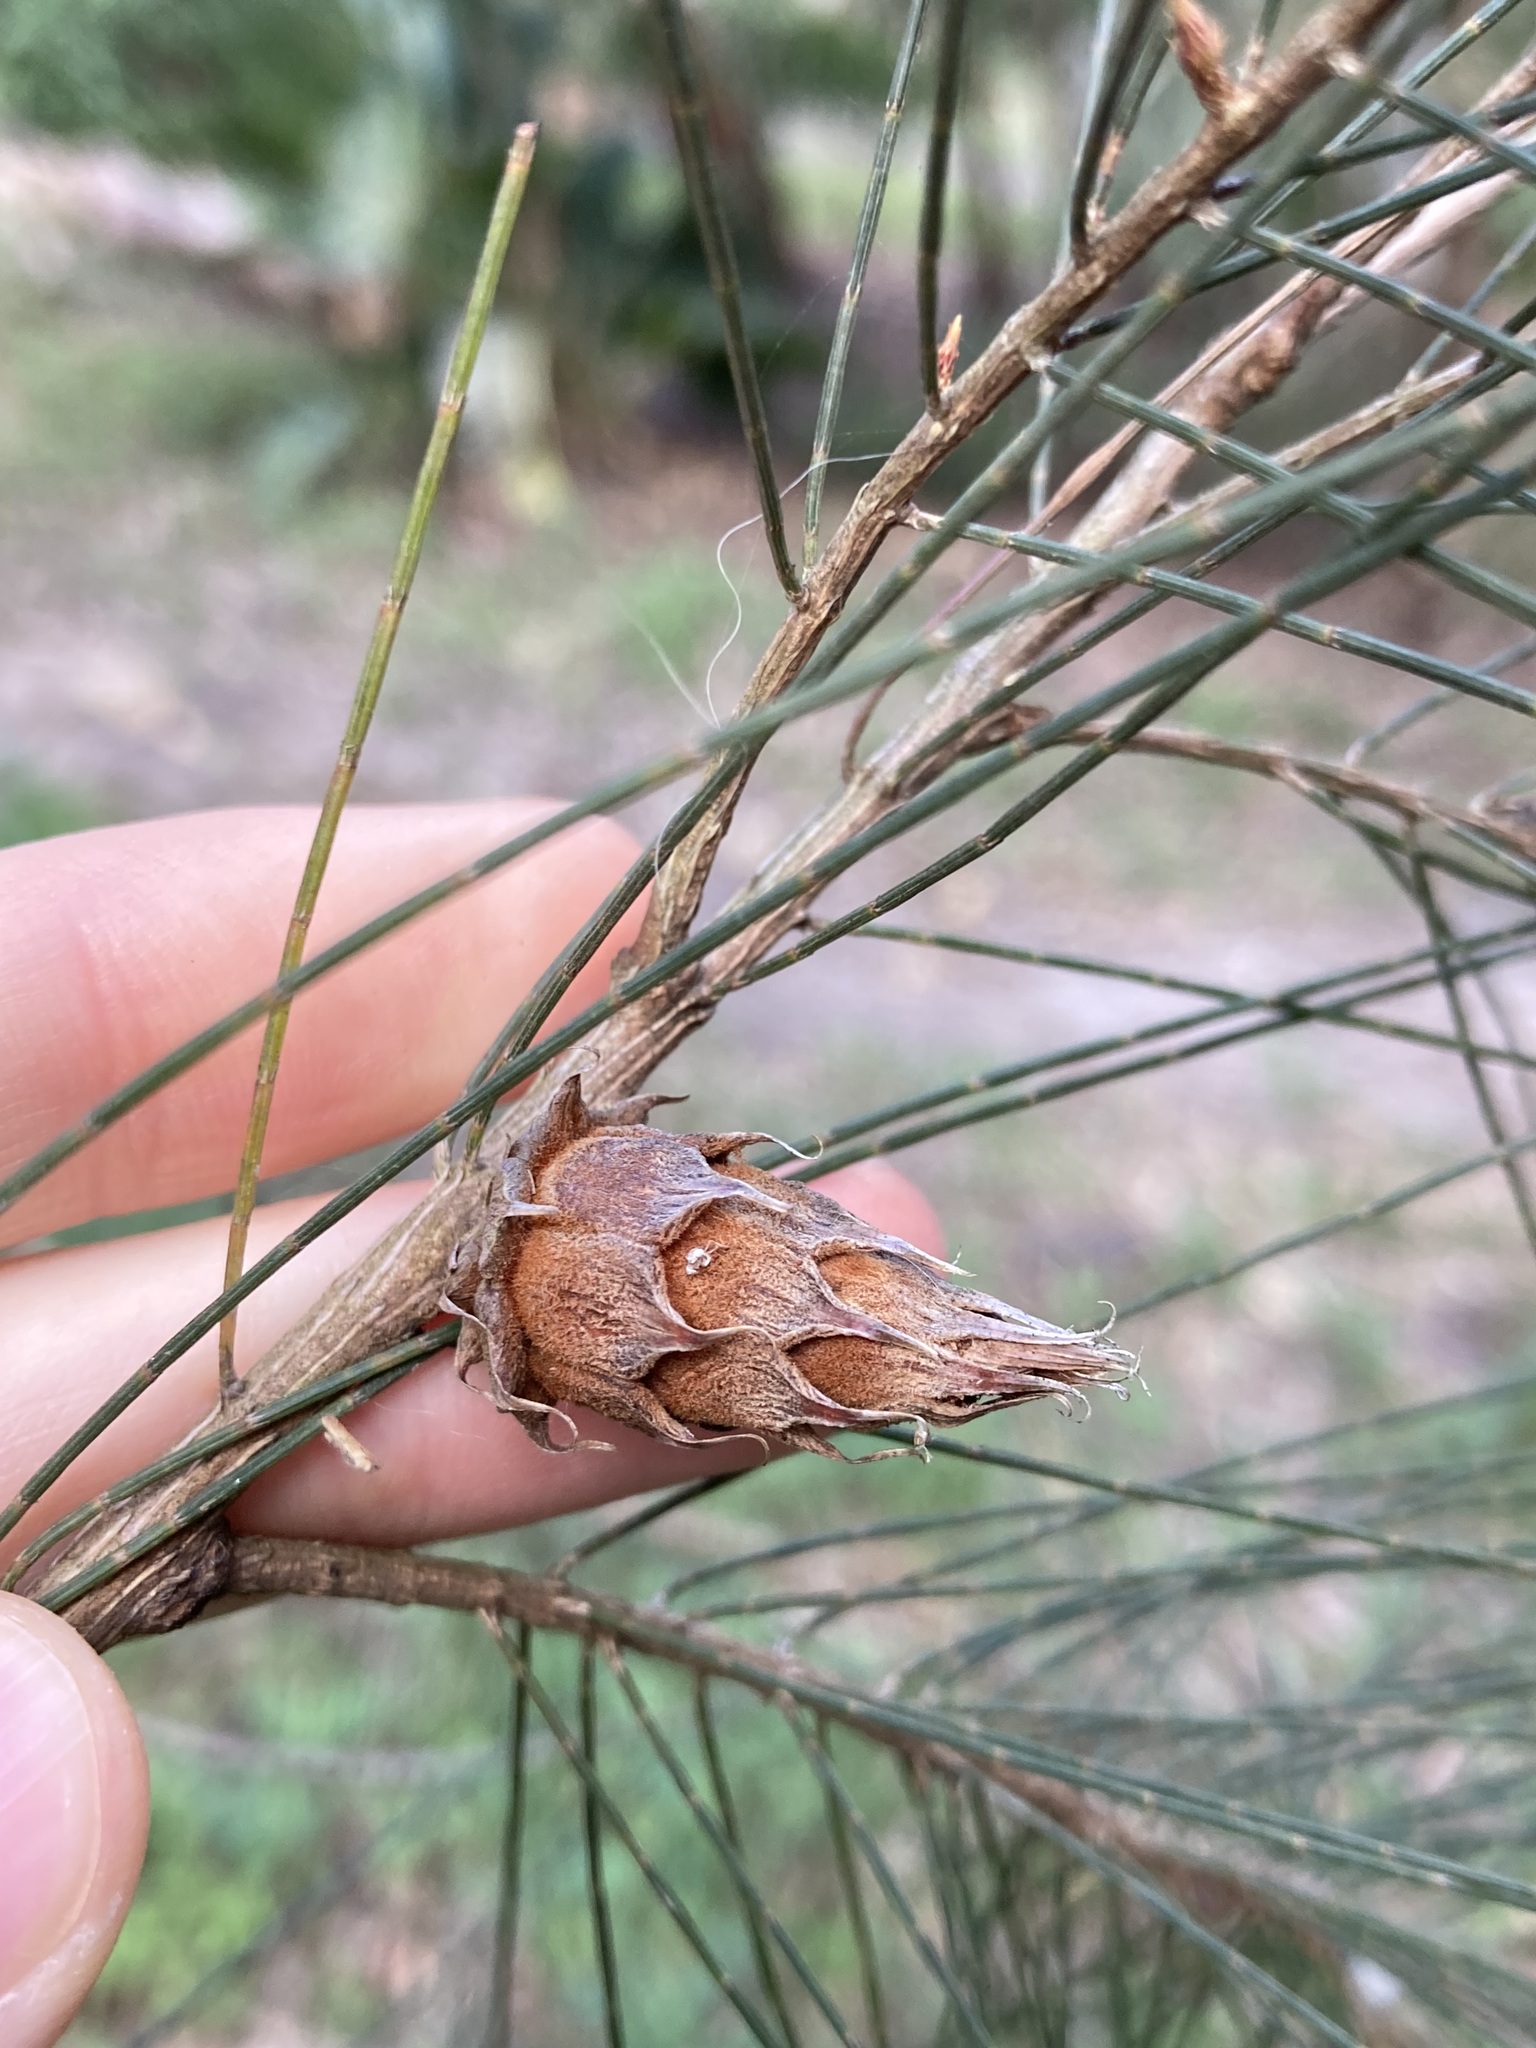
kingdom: Animalia
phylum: Arthropoda
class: Insecta
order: Hemiptera
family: Eriococcidae
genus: Cylindrococcus
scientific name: Cylindrococcus spiniferus
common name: Casuarina gall
